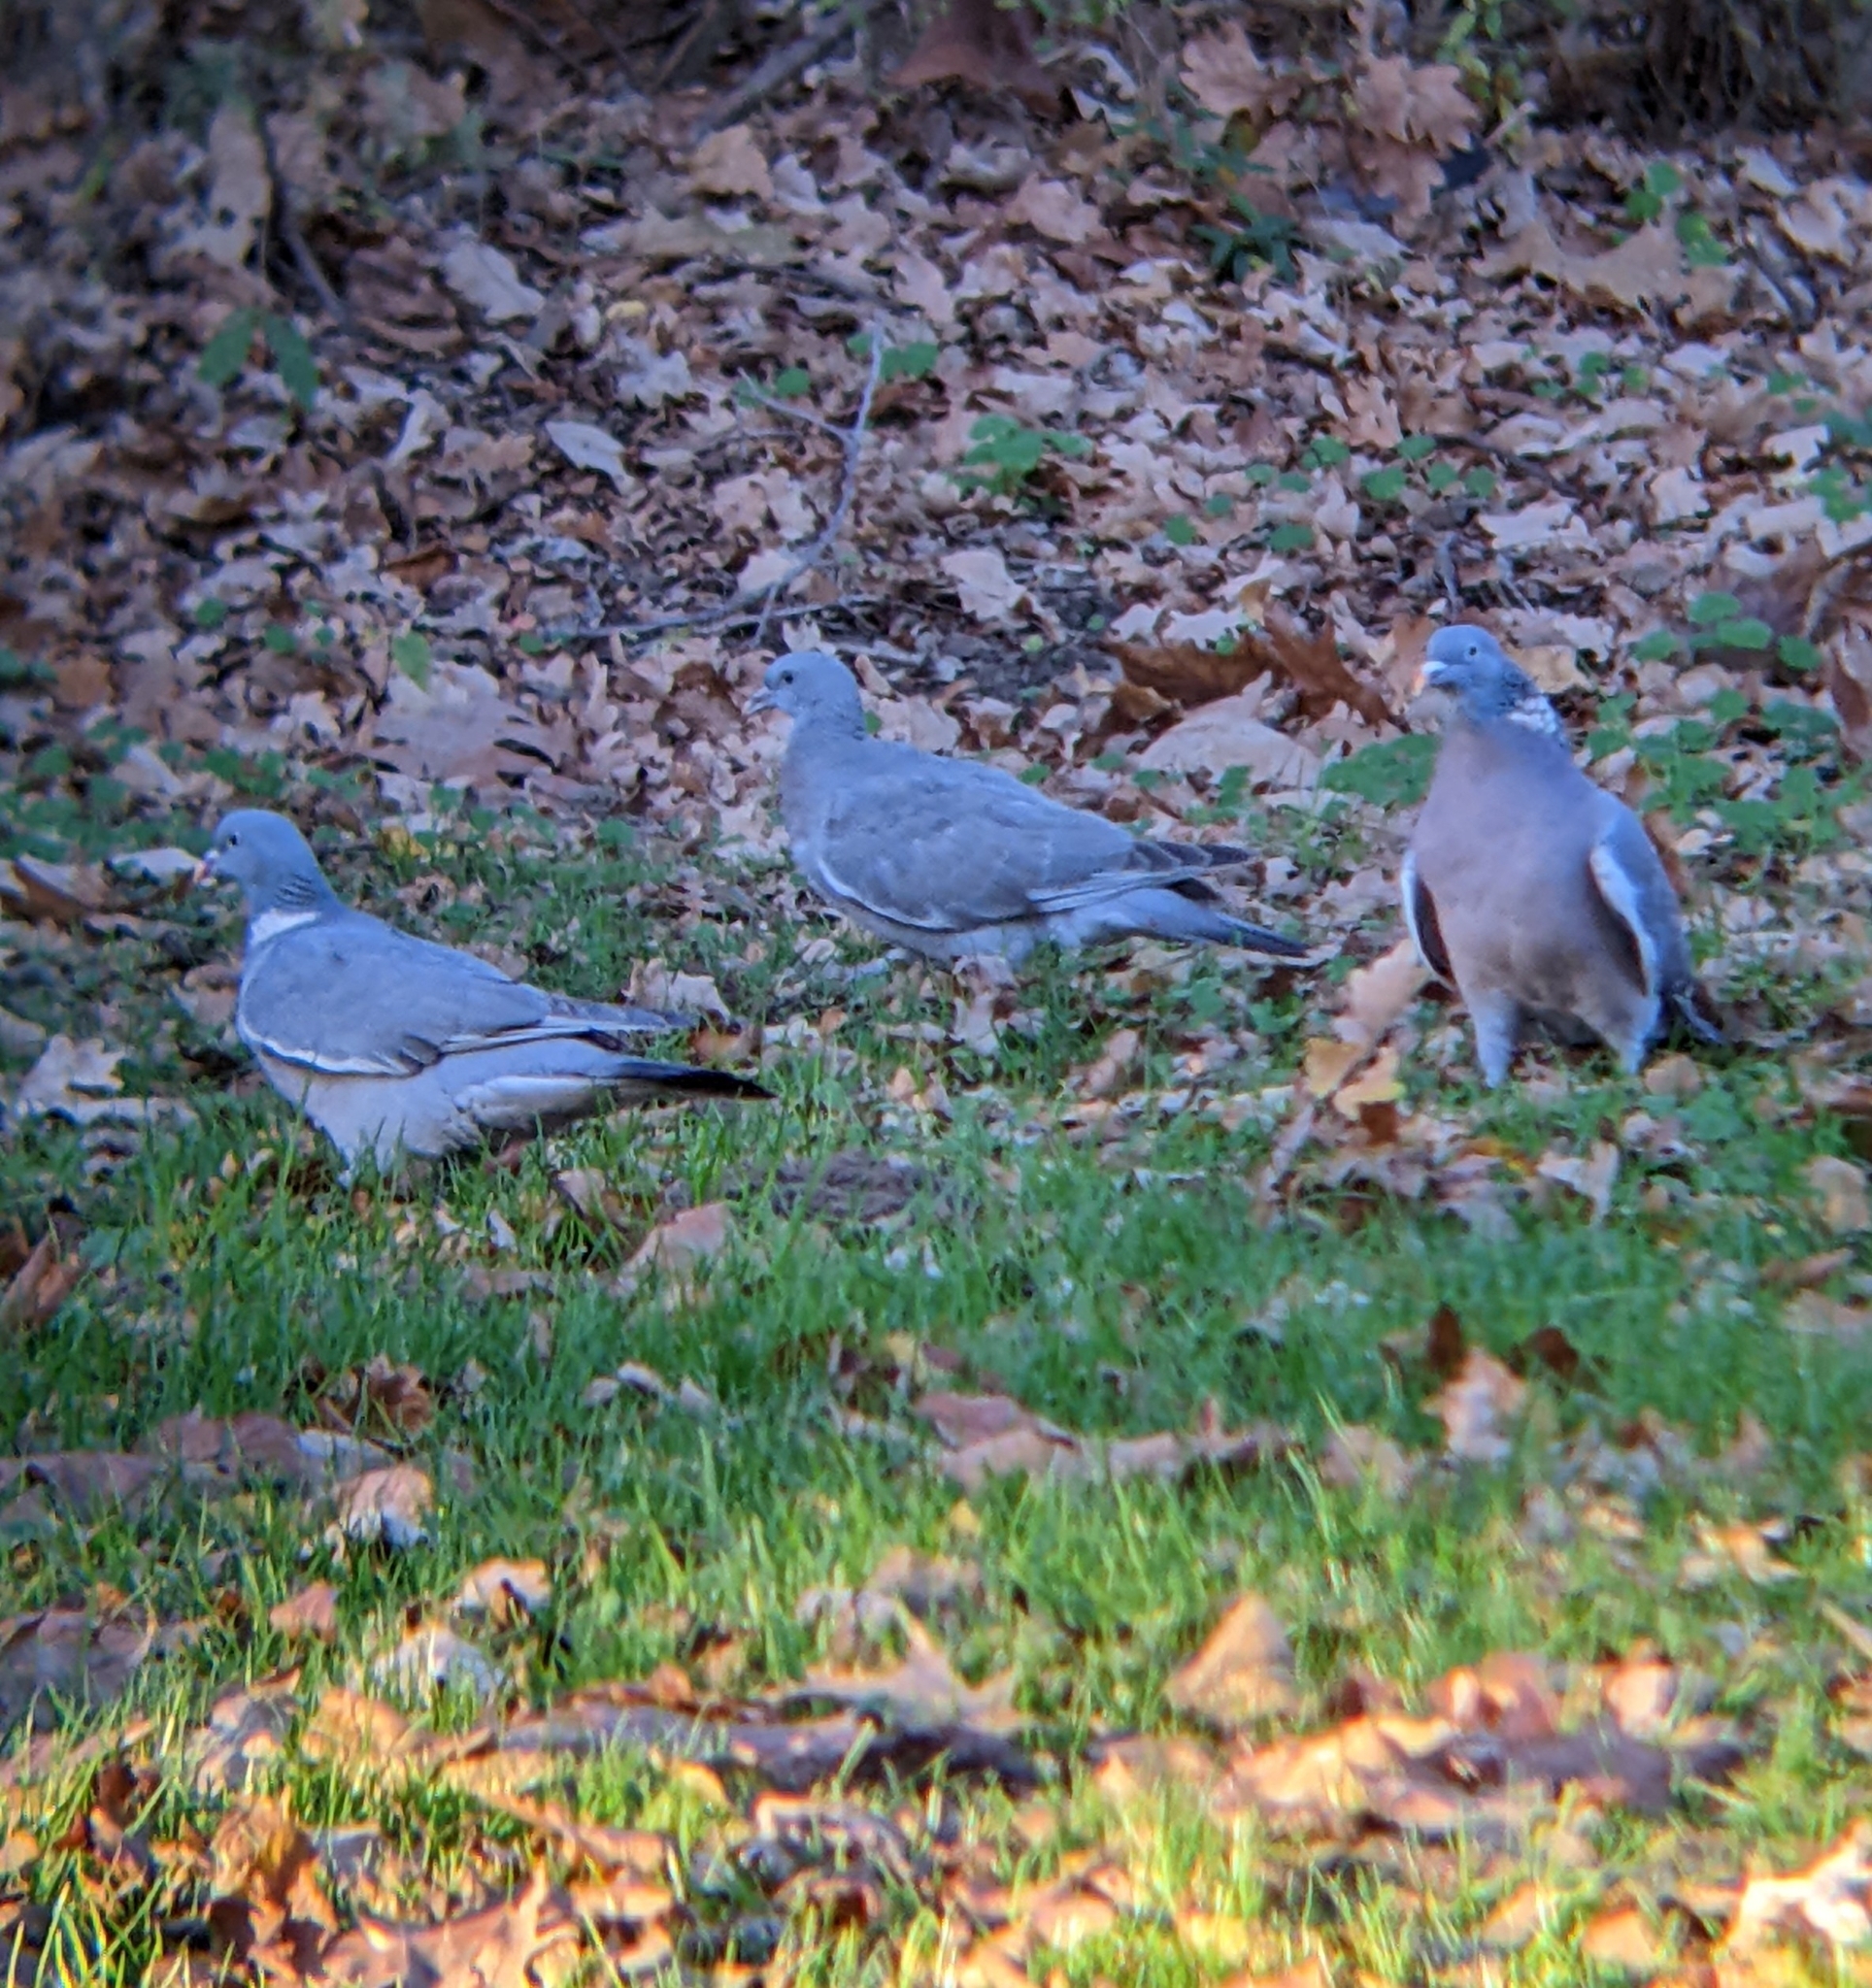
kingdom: Animalia
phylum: Chordata
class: Aves
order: Columbiformes
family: Columbidae
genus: Columba
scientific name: Columba palumbus
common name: Common wood pigeon
